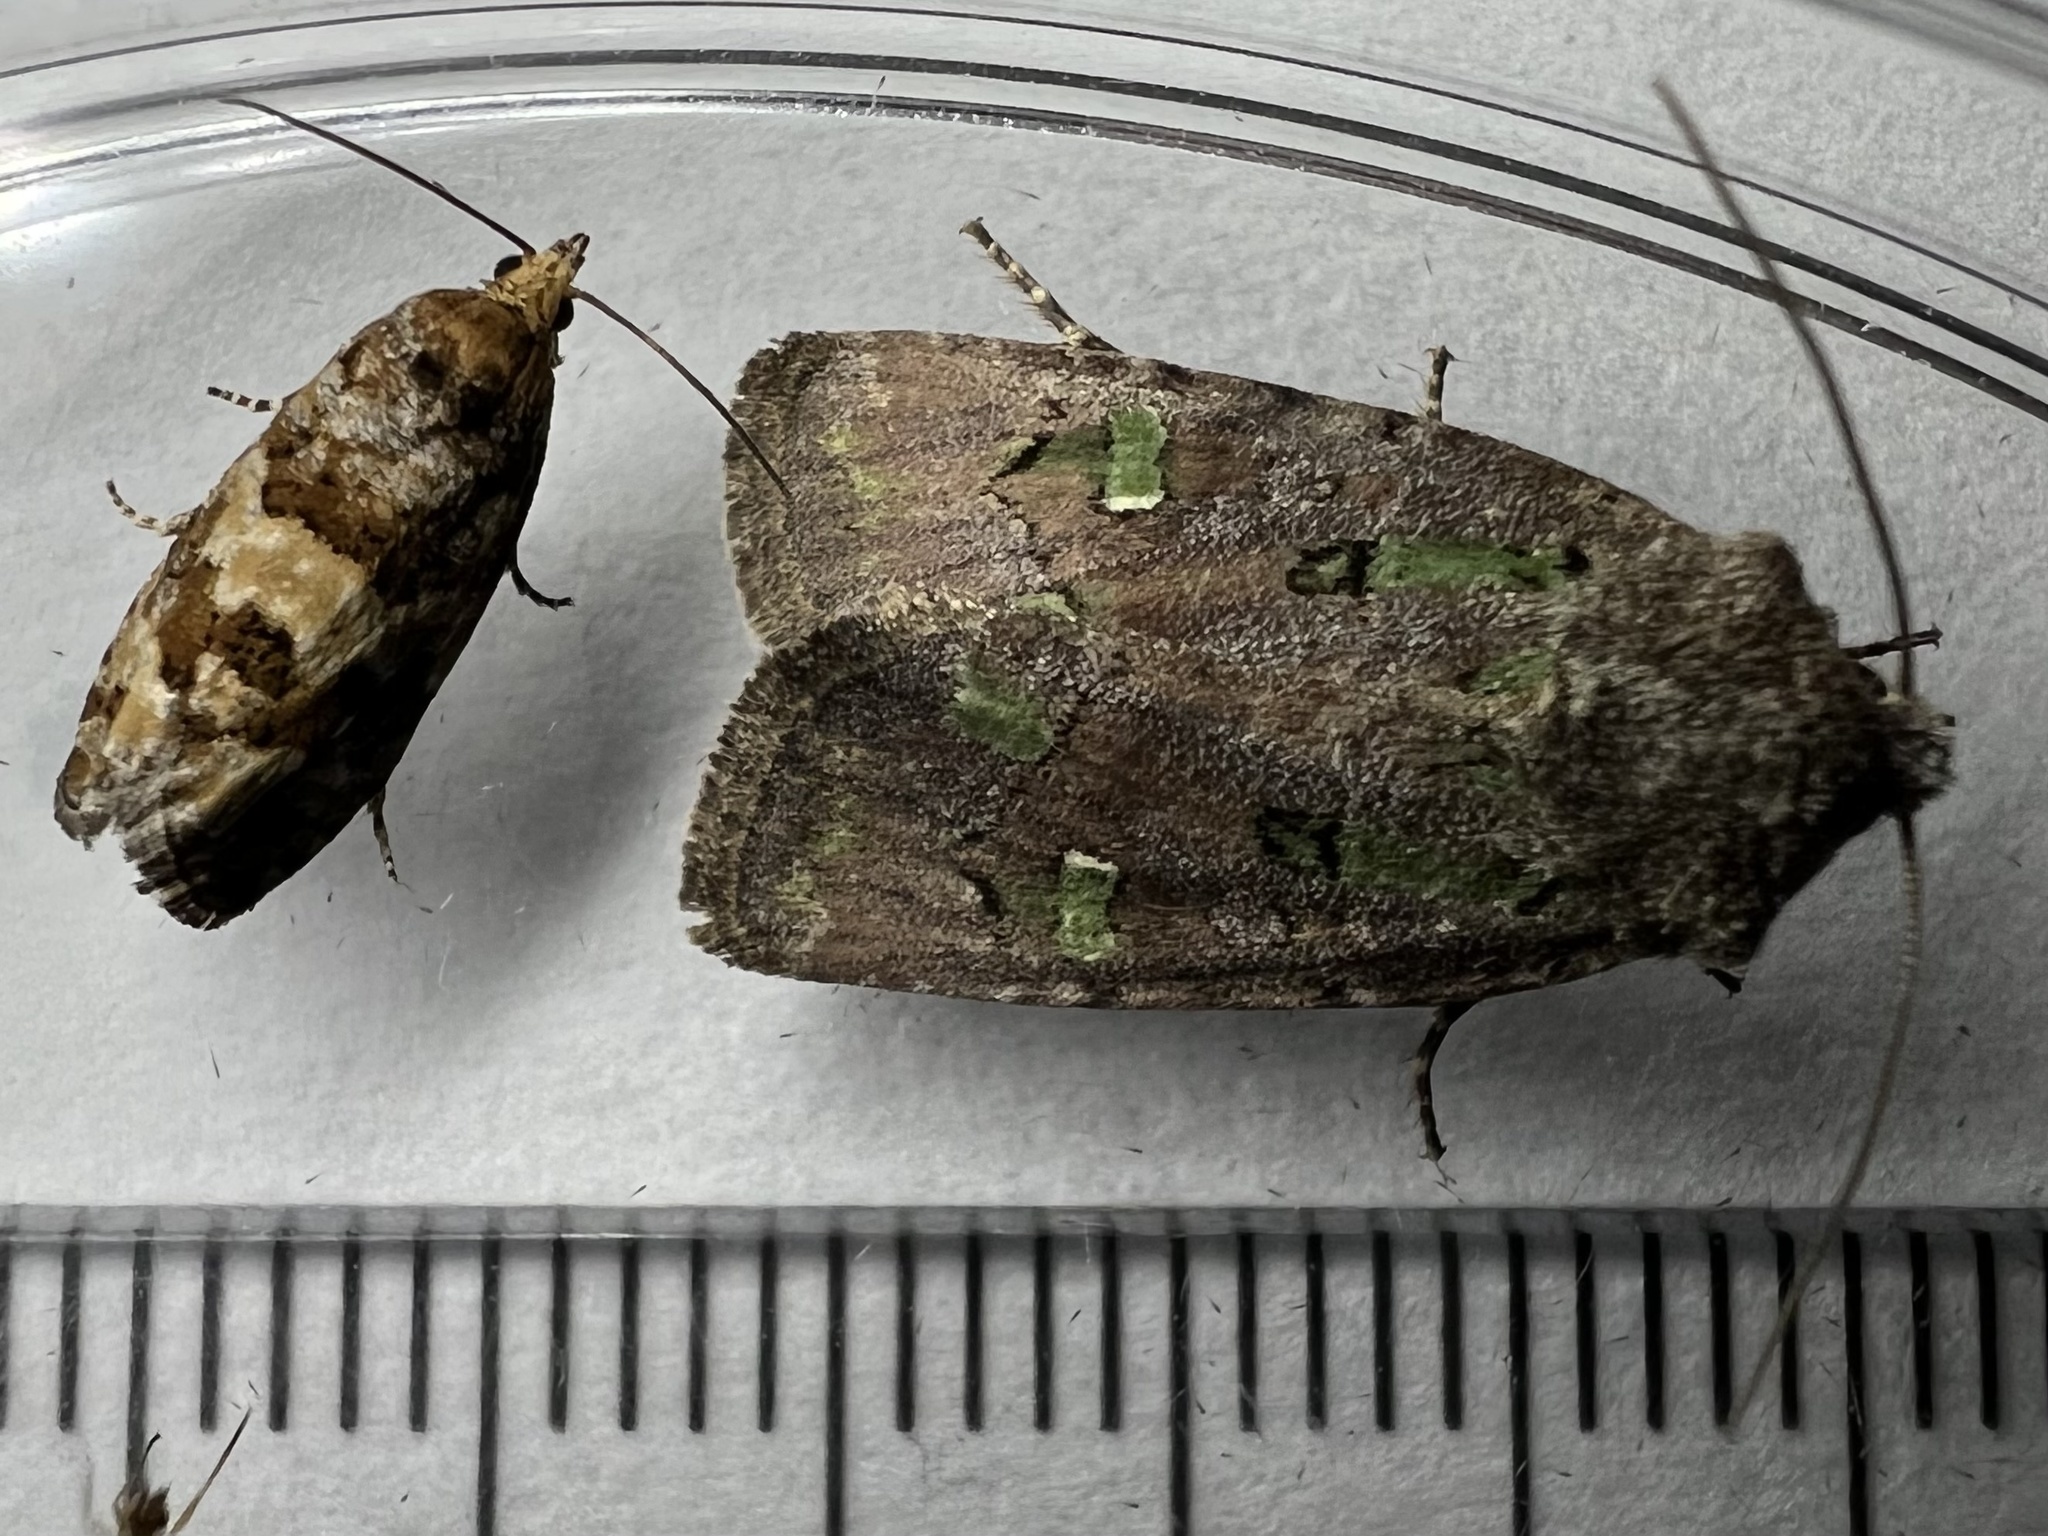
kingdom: Animalia
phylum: Arthropoda
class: Insecta
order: Lepidoptera
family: Tortricidae
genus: Eucopina
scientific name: Eucopina tocullionana
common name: White pinecone borer moth
